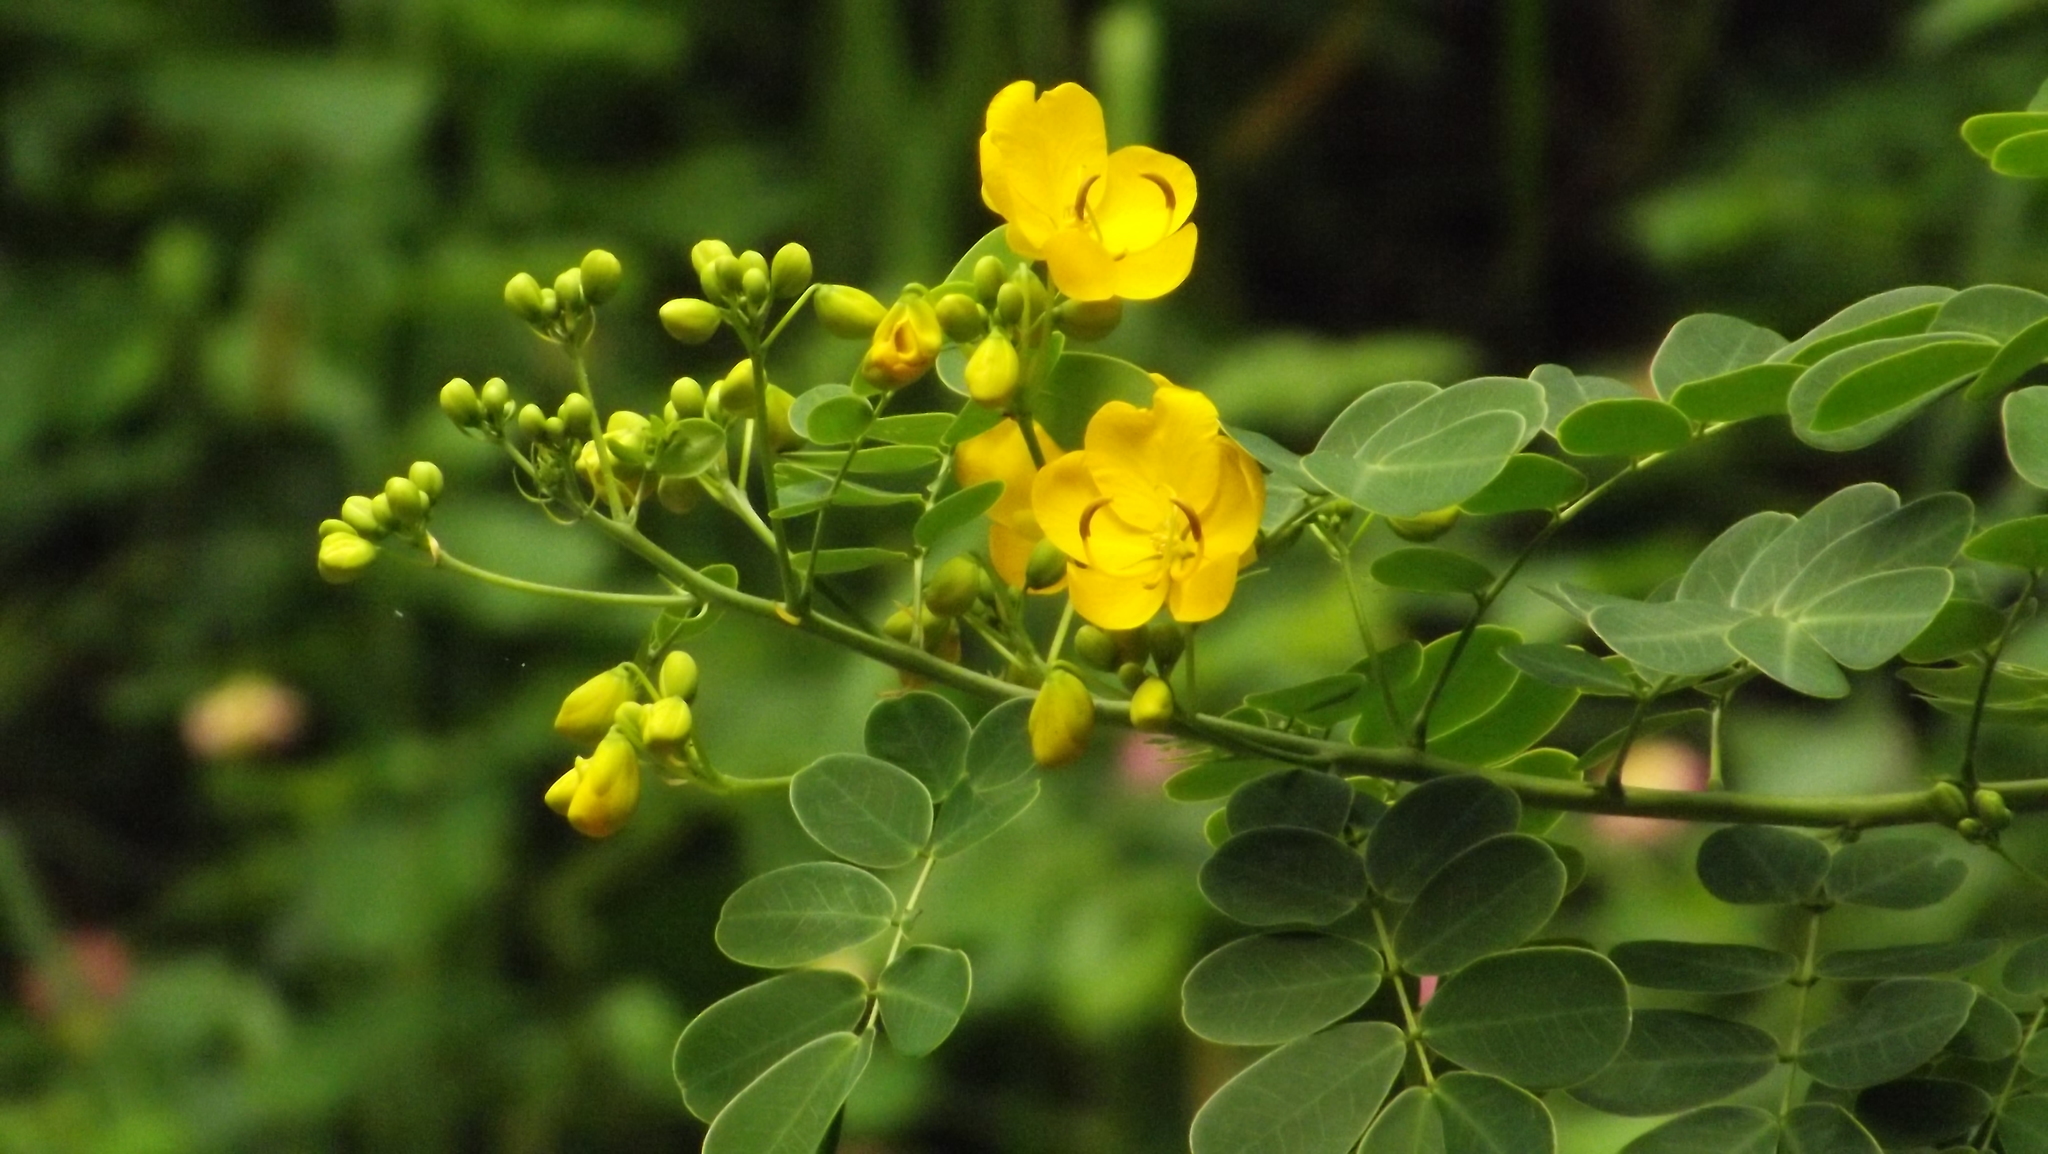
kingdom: Plantae
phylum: Tracheophyta
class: Magnoliopsida
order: Fabales
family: Fabaceae
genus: Senna
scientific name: Senna pendula
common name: Easter cassia
